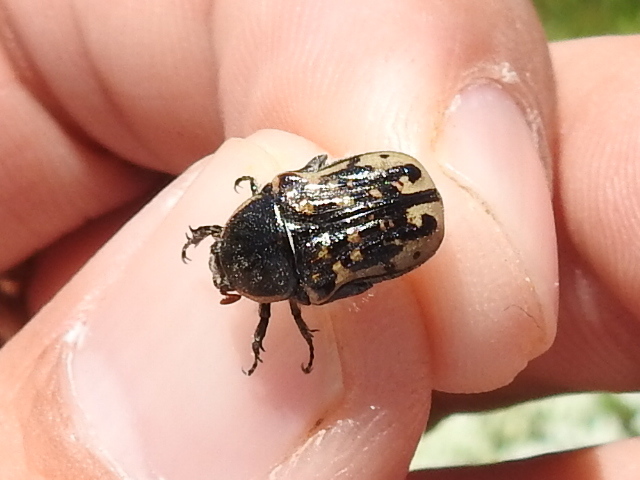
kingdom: Animalia
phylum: Arthropoda
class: Insecta
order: Coleoptera
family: Scarabaeidae
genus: Euphoria
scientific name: Euphoria kernii
